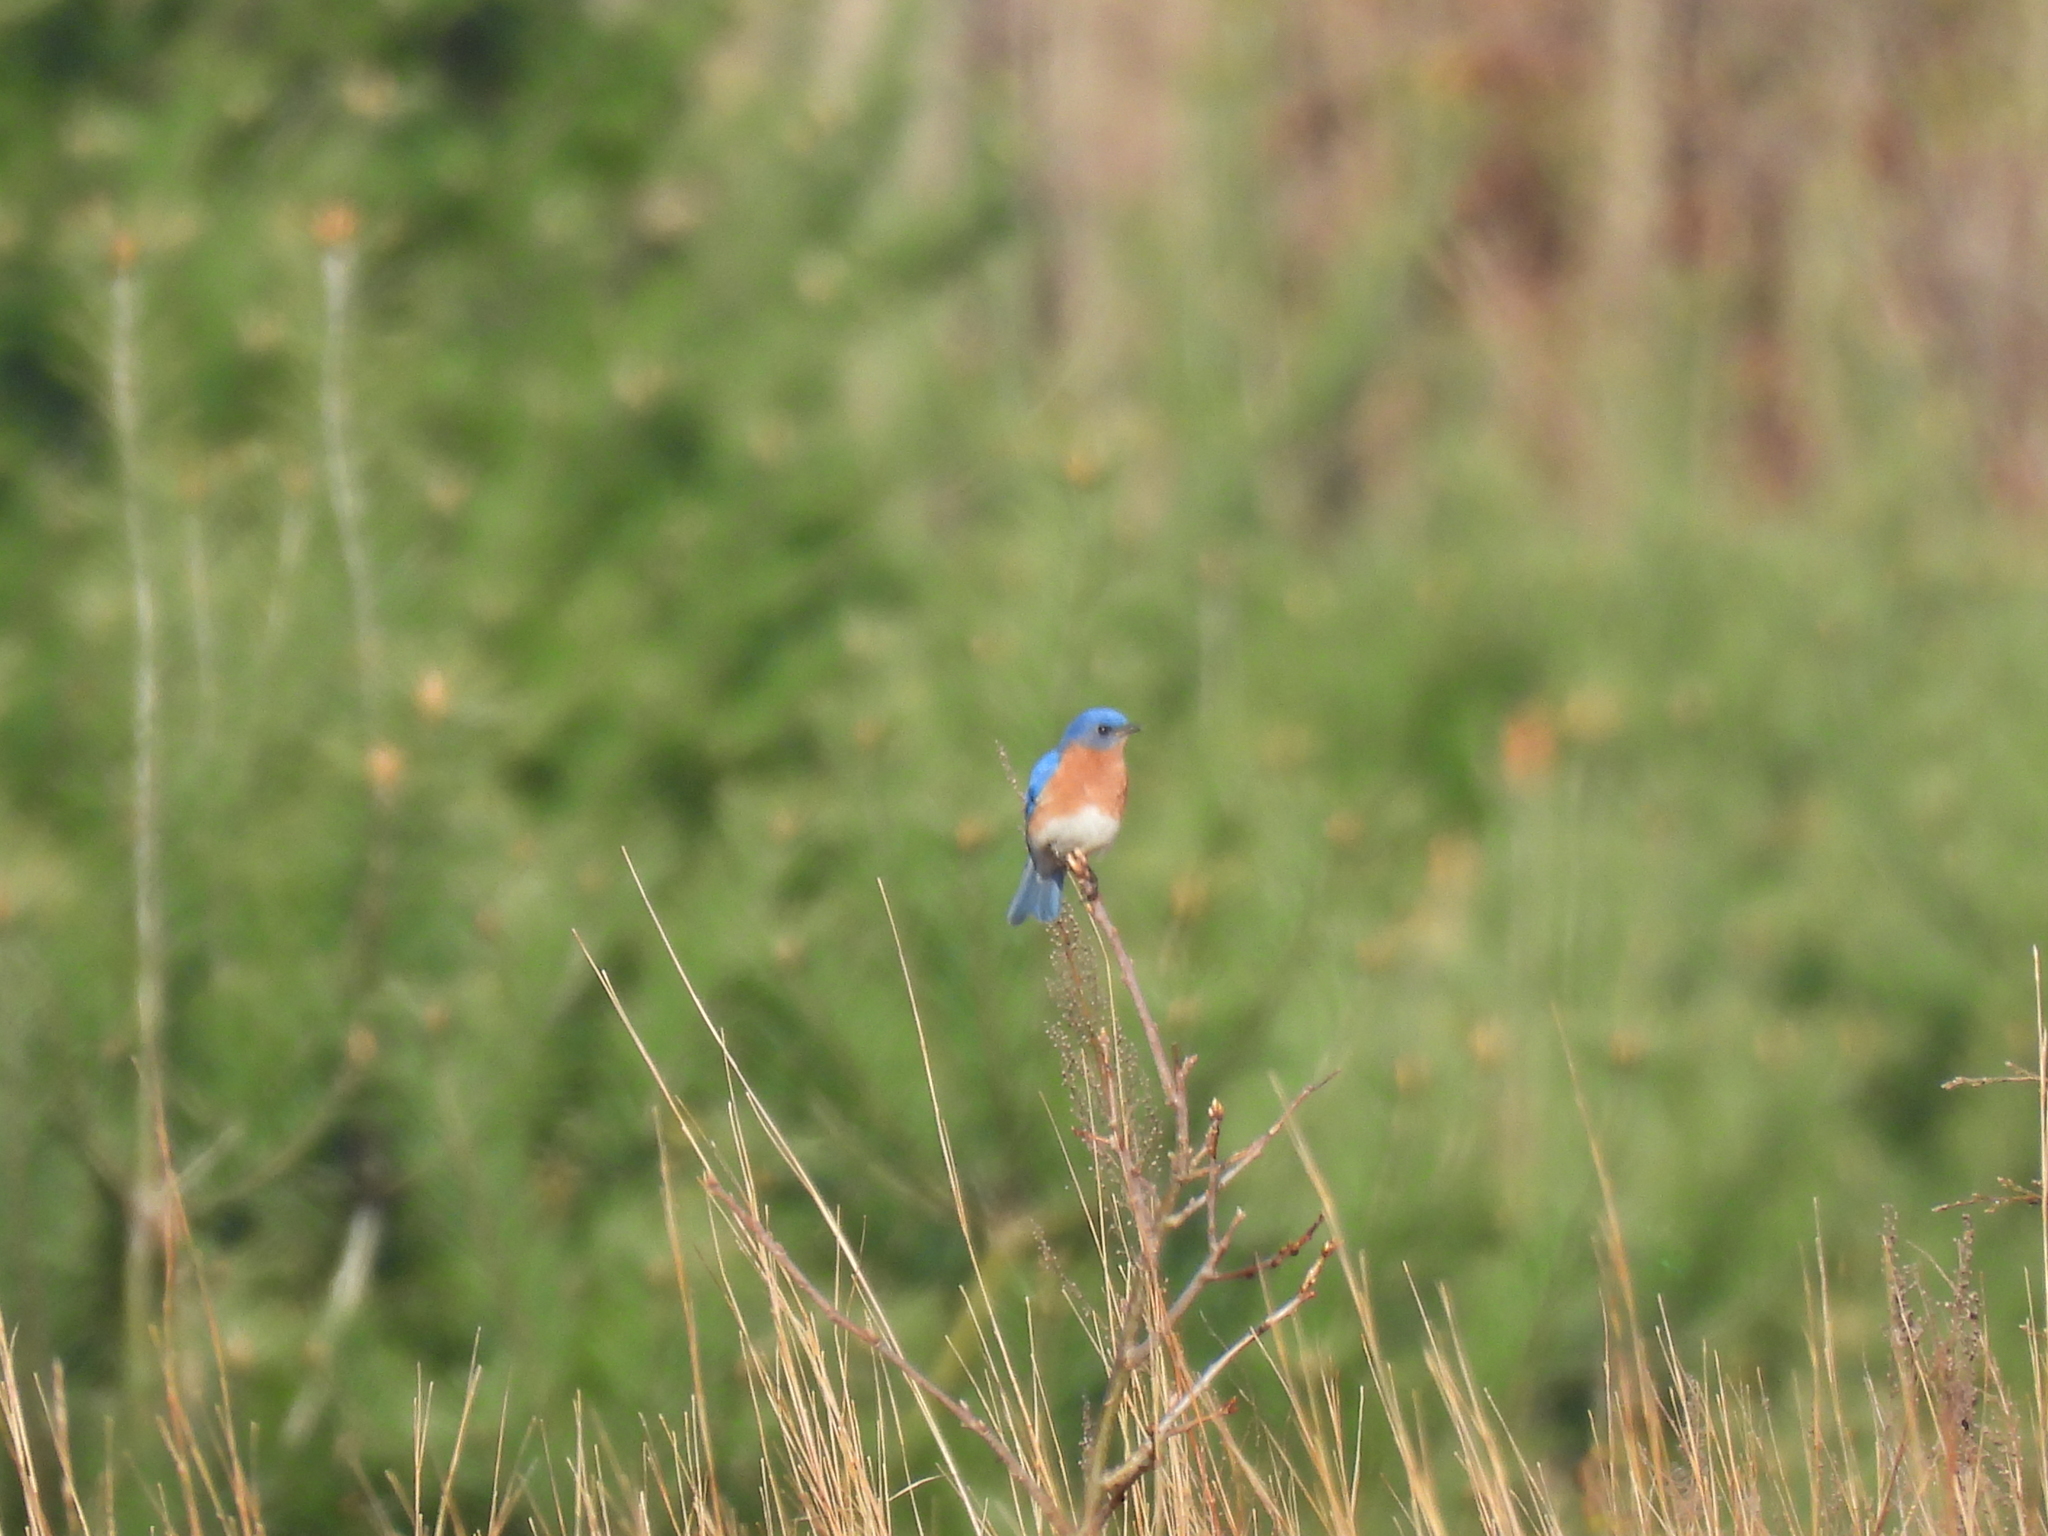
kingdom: Animalia
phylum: Chordata
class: Aves
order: Passeriformes
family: Turdidae
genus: Sialia
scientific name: Sialia sialis
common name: Eastern bluebird
